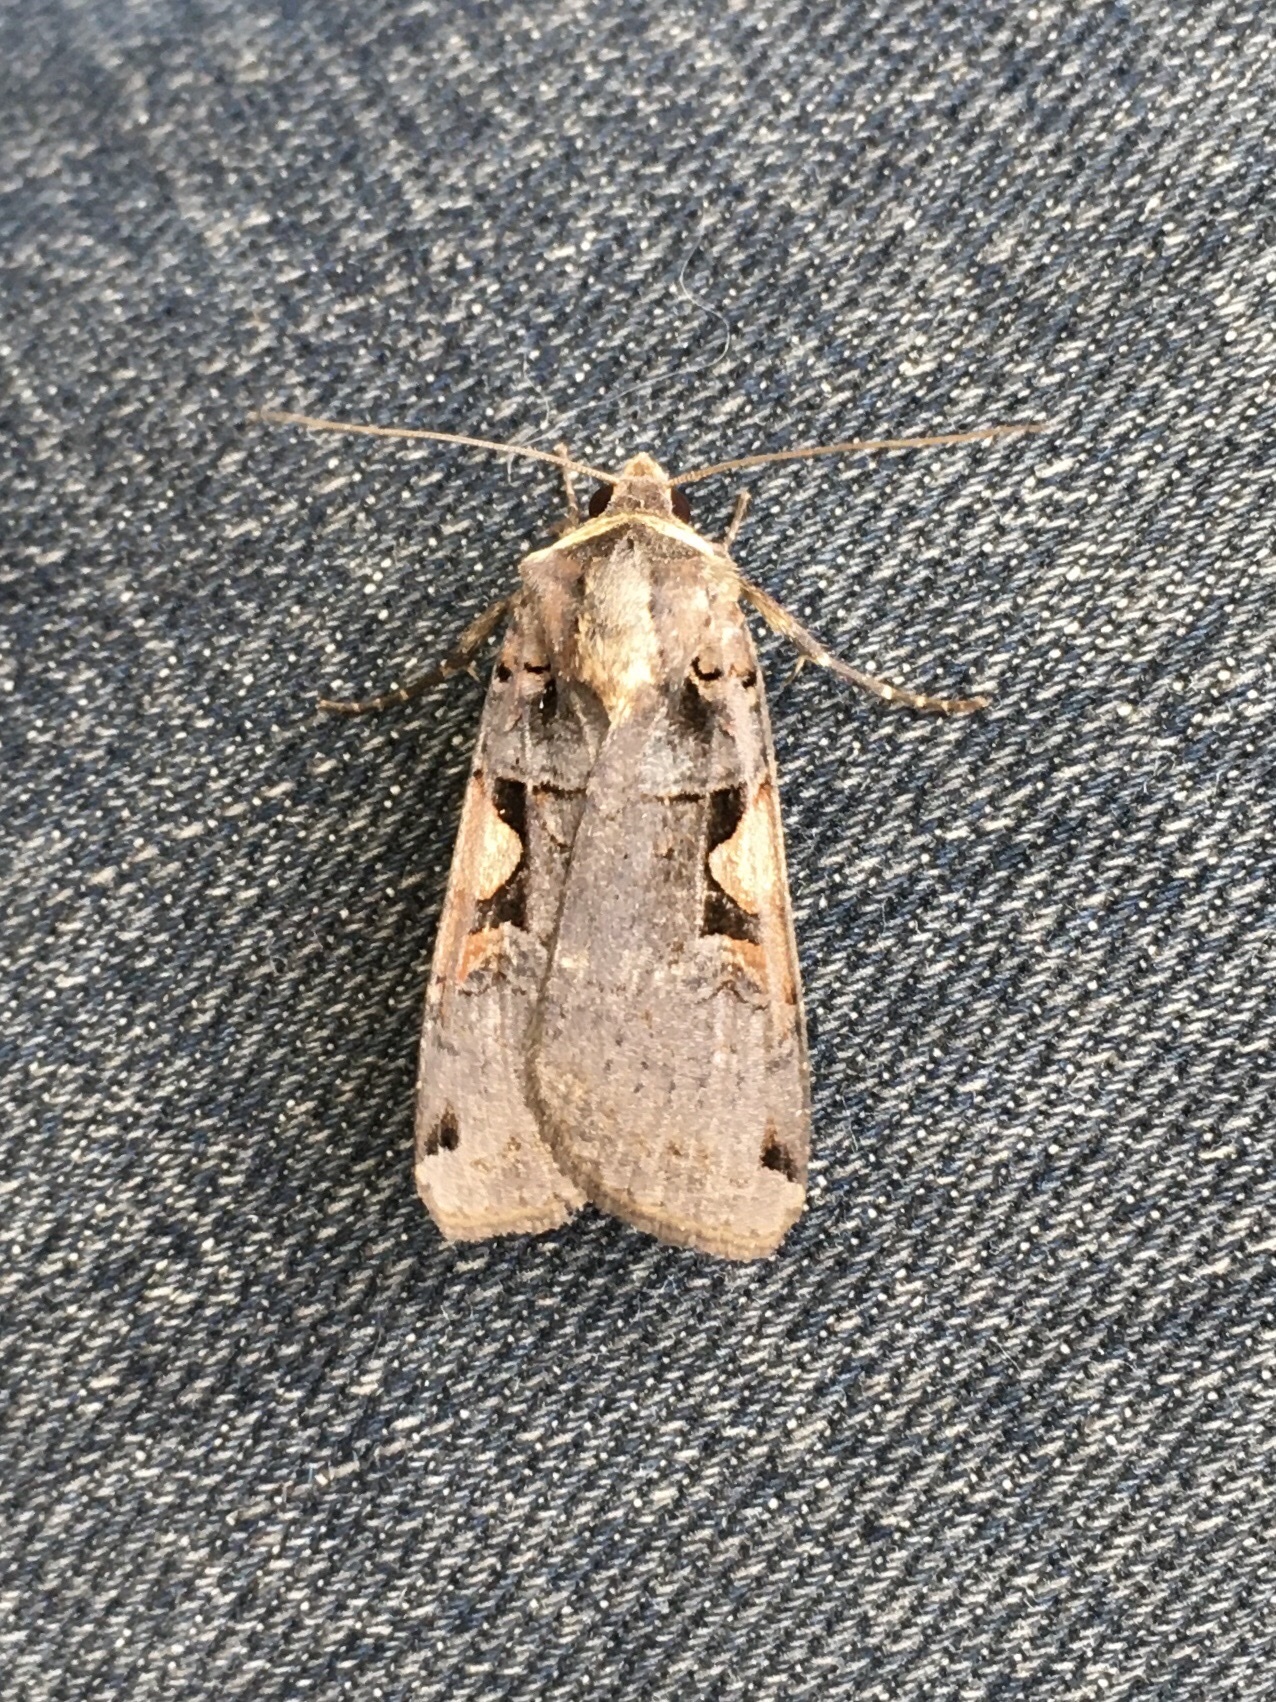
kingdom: Animalia
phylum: Arthropoda
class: Insecta
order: Lepidoptera
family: Noctuidae
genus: Xestia
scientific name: Xestia
